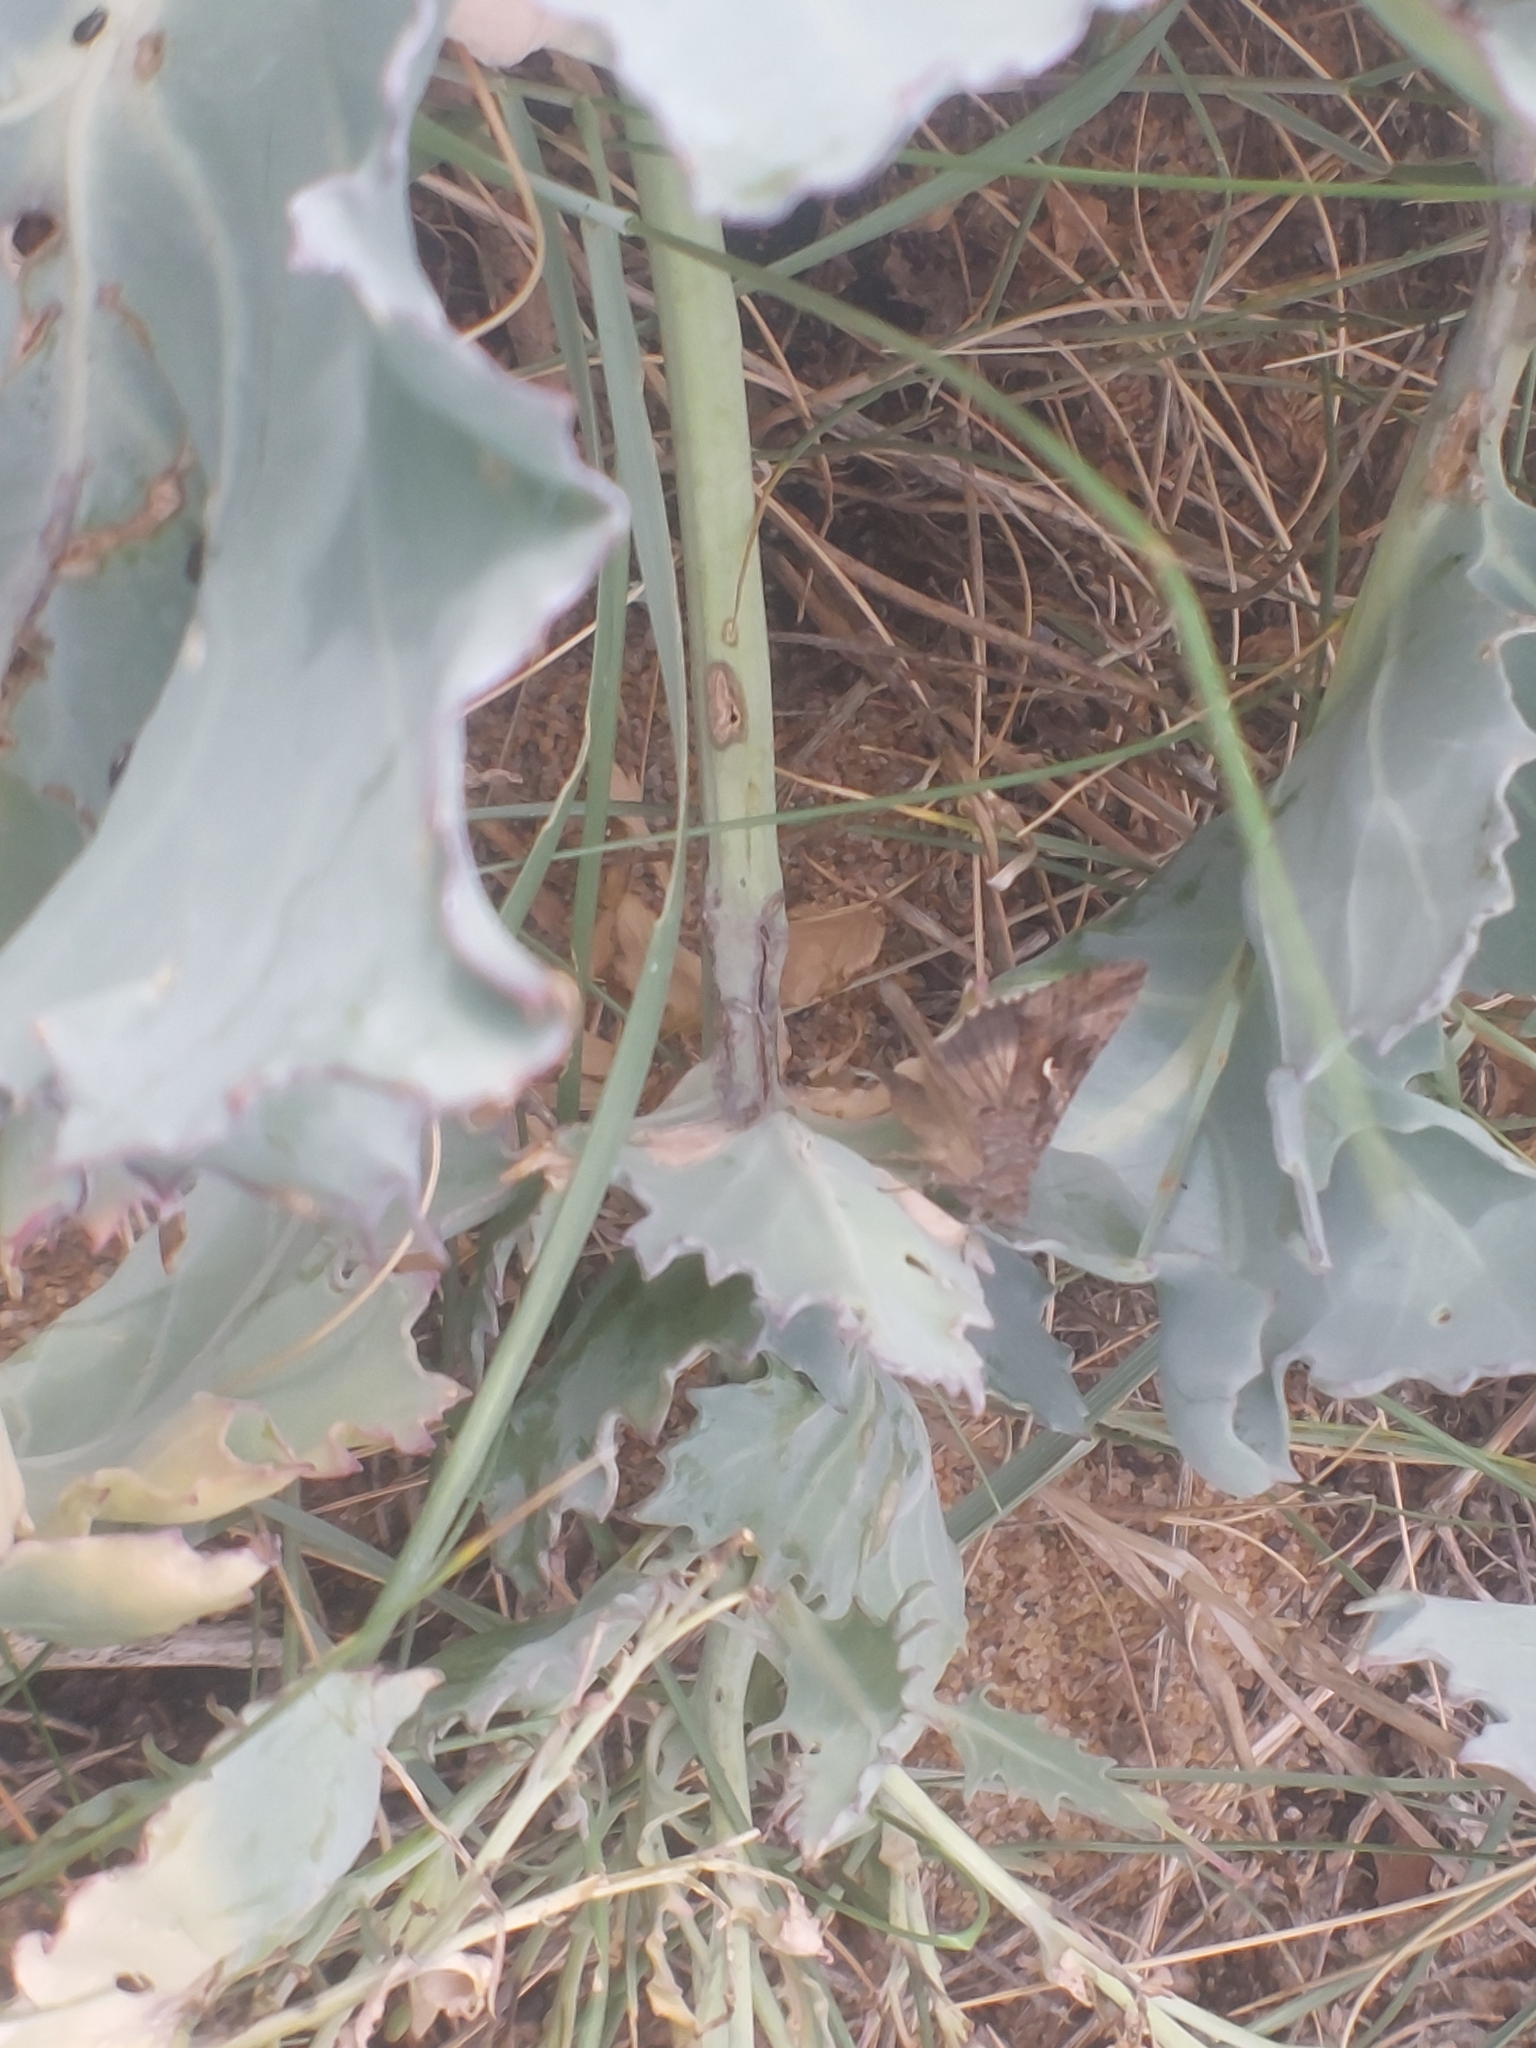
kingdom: Animalia
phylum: Arthropoda
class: Insecta
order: Lepidoptera
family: Noctuidae
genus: Autographa
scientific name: Autographa gamma
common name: Silver y
